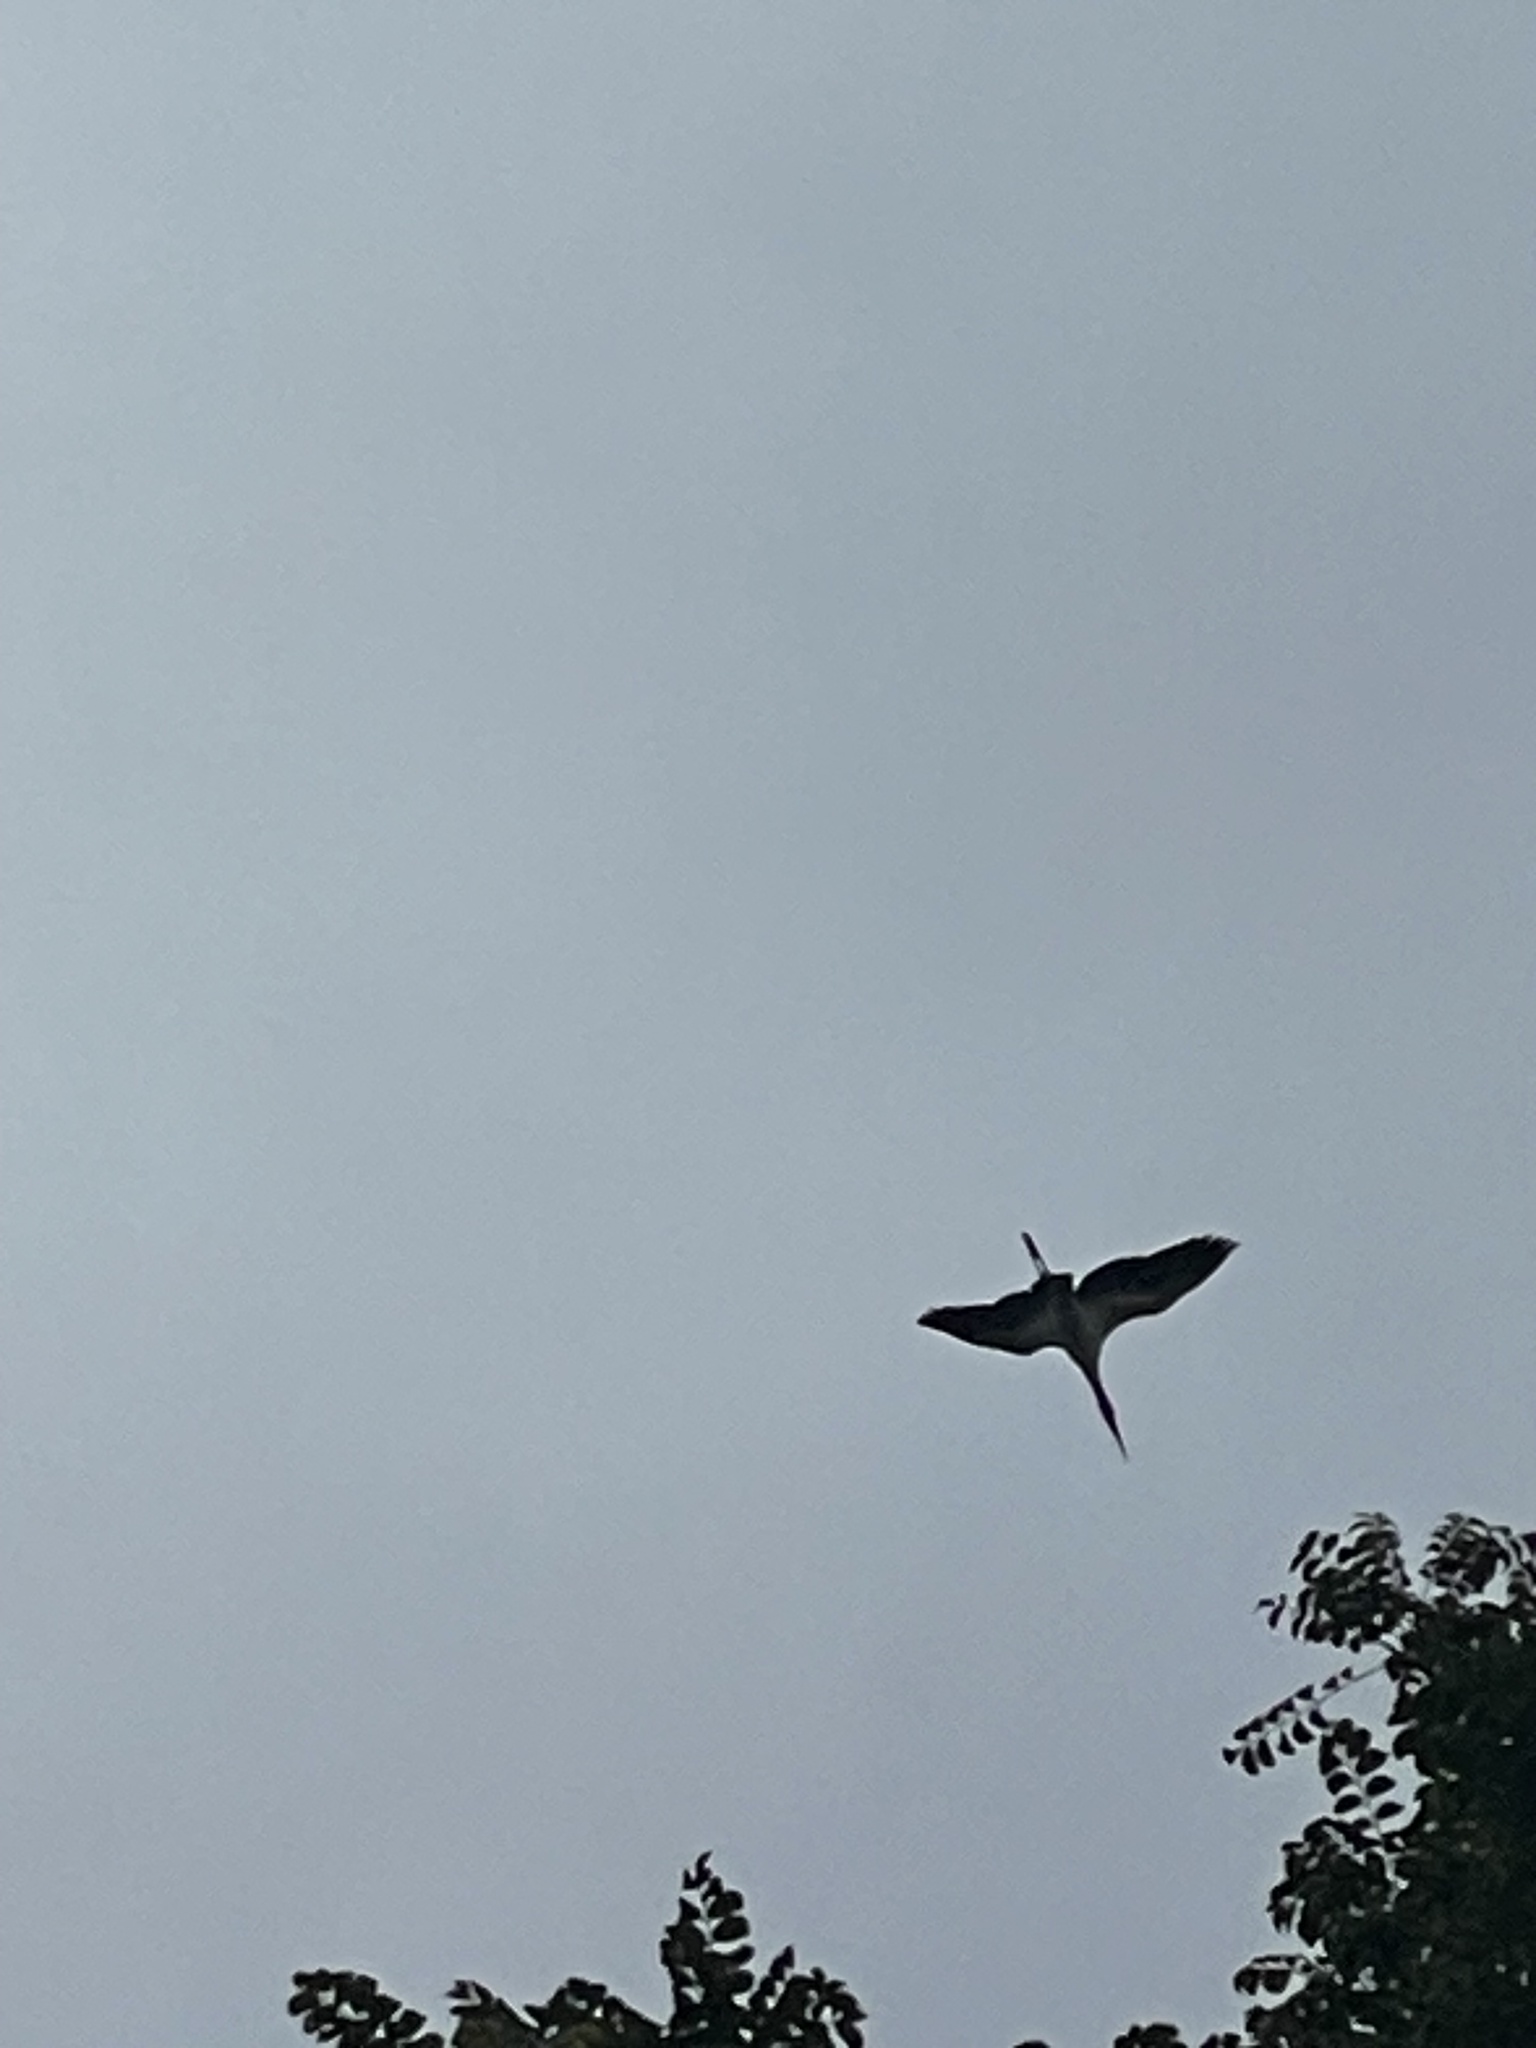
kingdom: Animalia
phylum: Chordata
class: Aves
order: Ciconiiformes
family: Ciconiidae
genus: Mycteria
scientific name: Mycteria americana
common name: Wood stork
